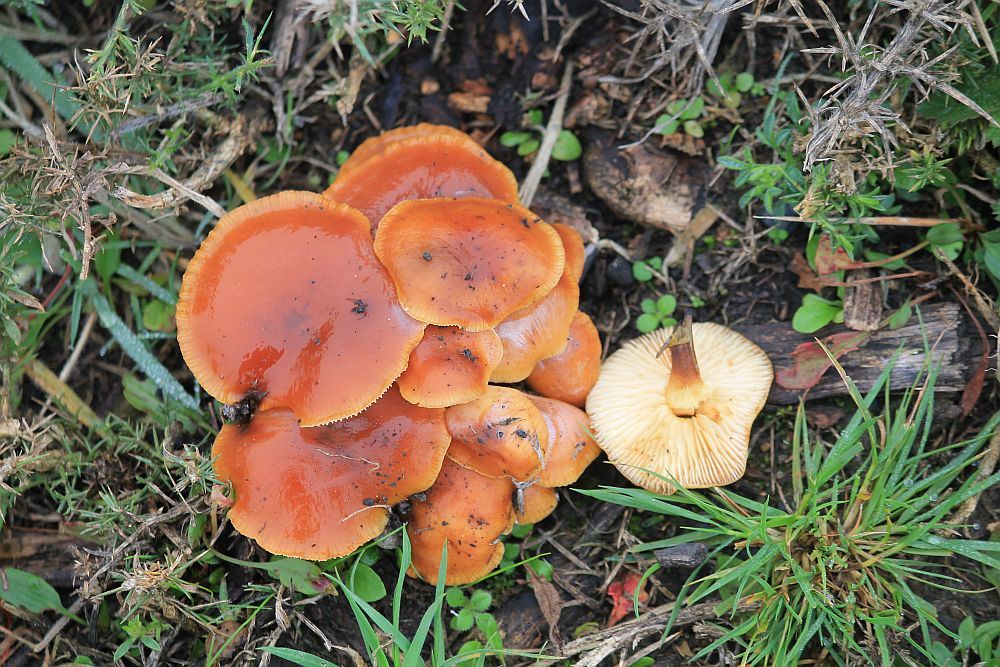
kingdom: Fungi
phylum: Basidiomycota
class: Agaricomycetes
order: Agaricales
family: Physalacriaceae
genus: Flammulina
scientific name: Flammulina
